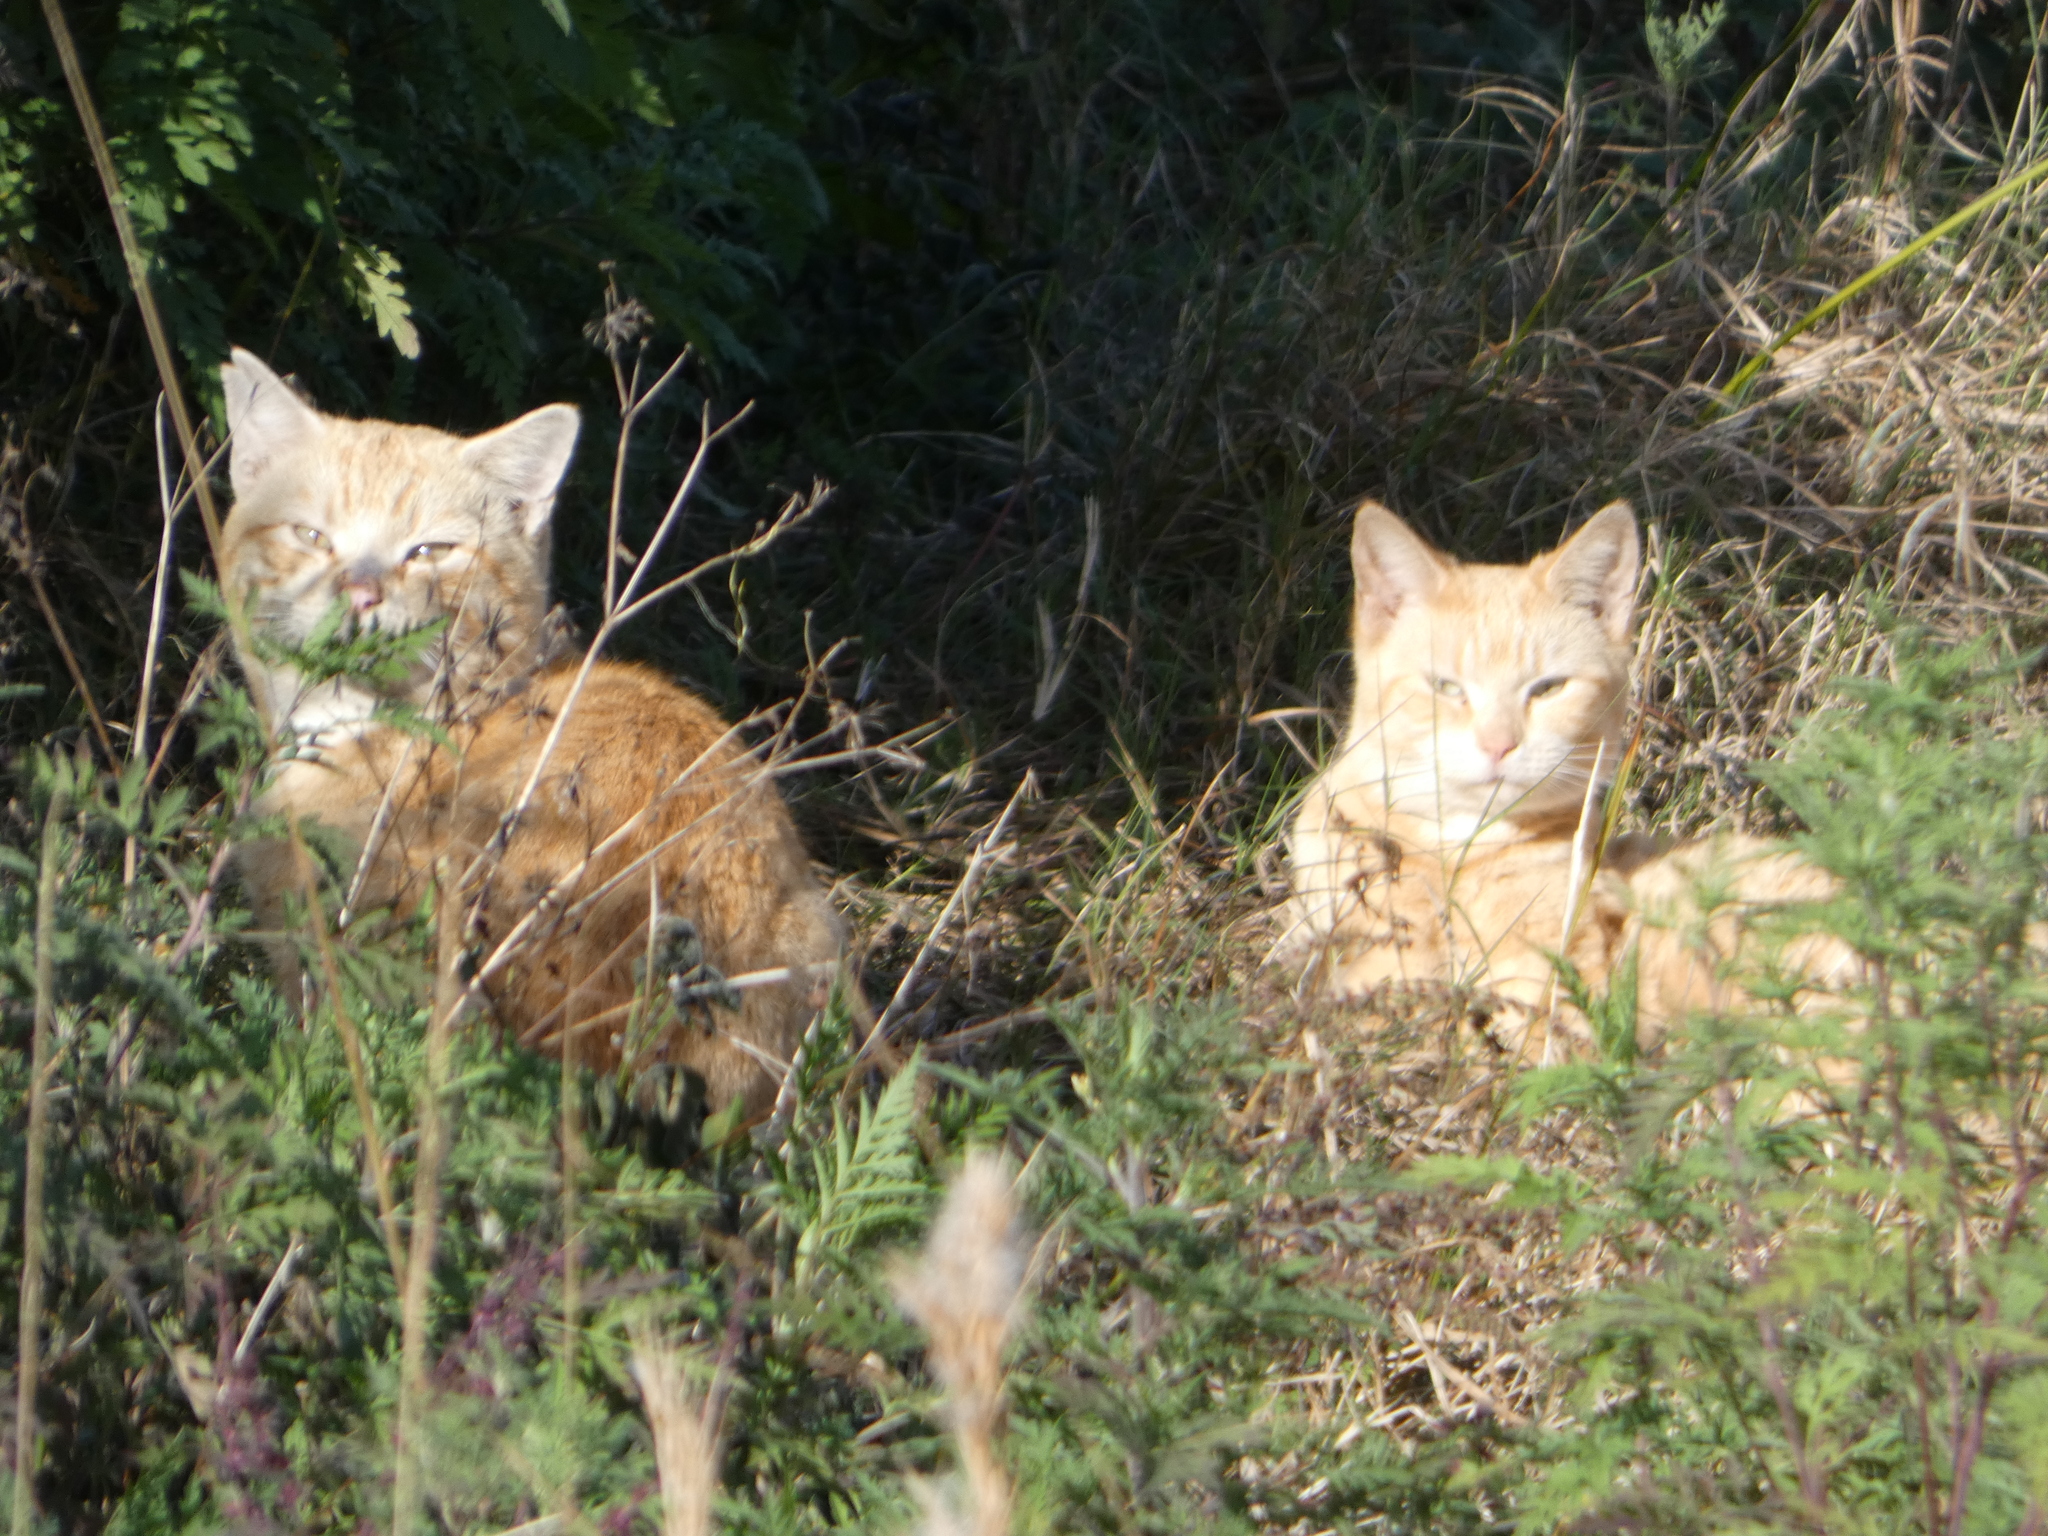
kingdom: Animalia
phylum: Chordata
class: Mammalia
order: Carnivora
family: Felidae
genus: Felis
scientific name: Felis catus
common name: Domestic cat
